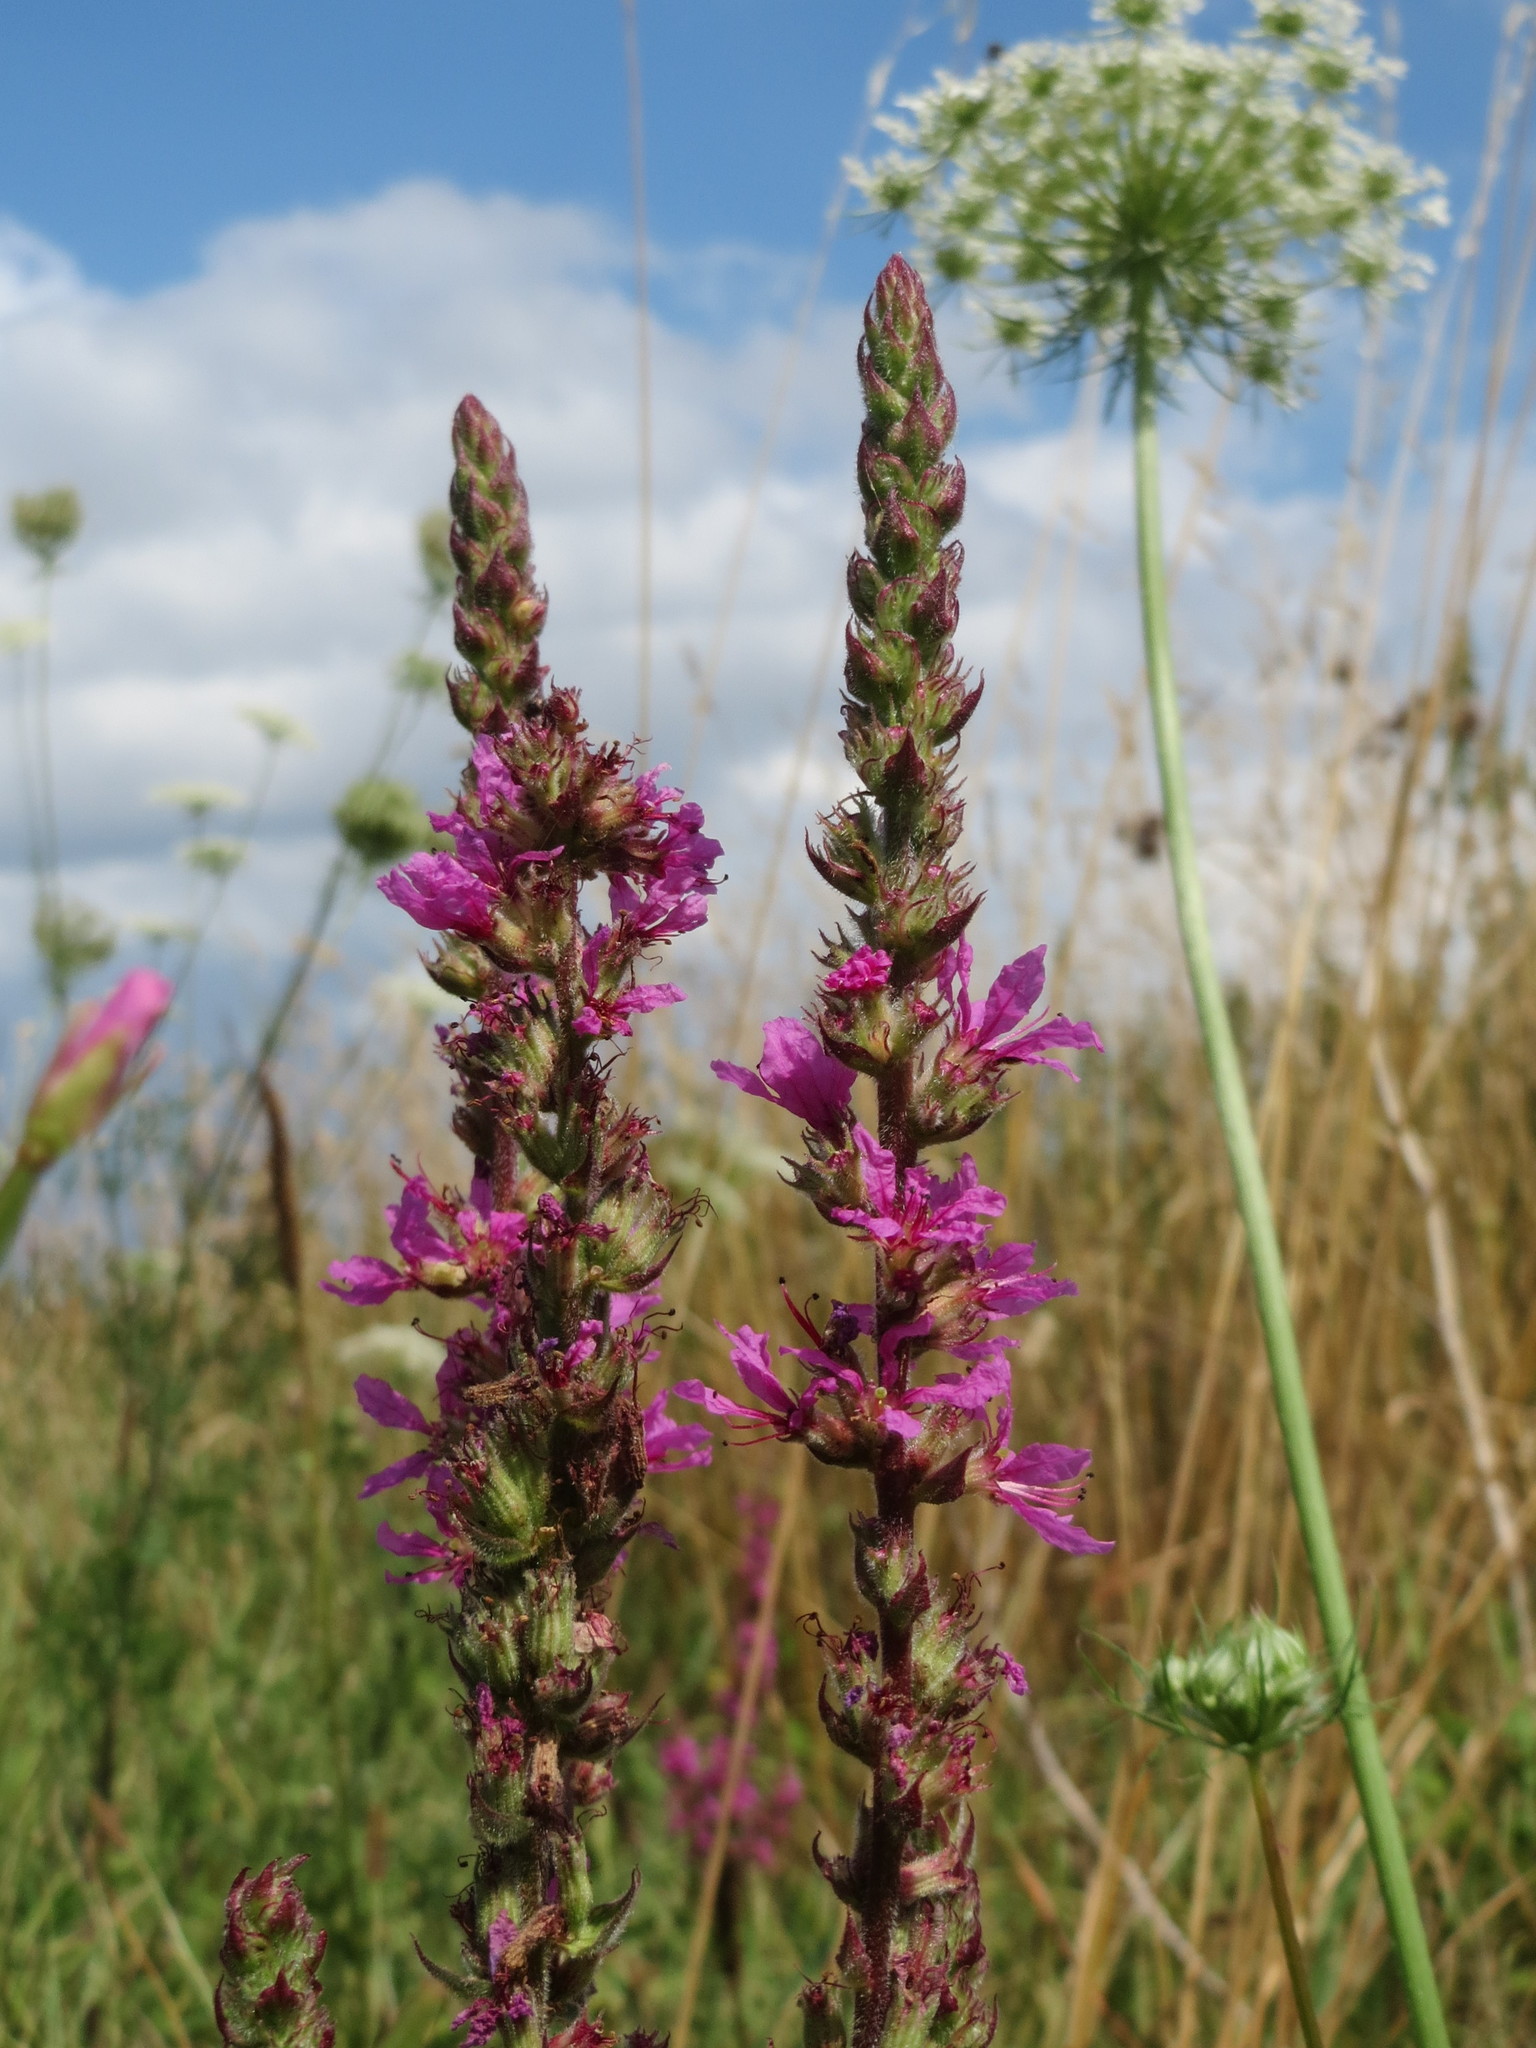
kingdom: Plantae
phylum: Tracheophyta
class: Magnoliopsida
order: Myrtales
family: Lythraceae
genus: Lythrum
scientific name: Lythrum salicaria
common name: Purple loosestrife
